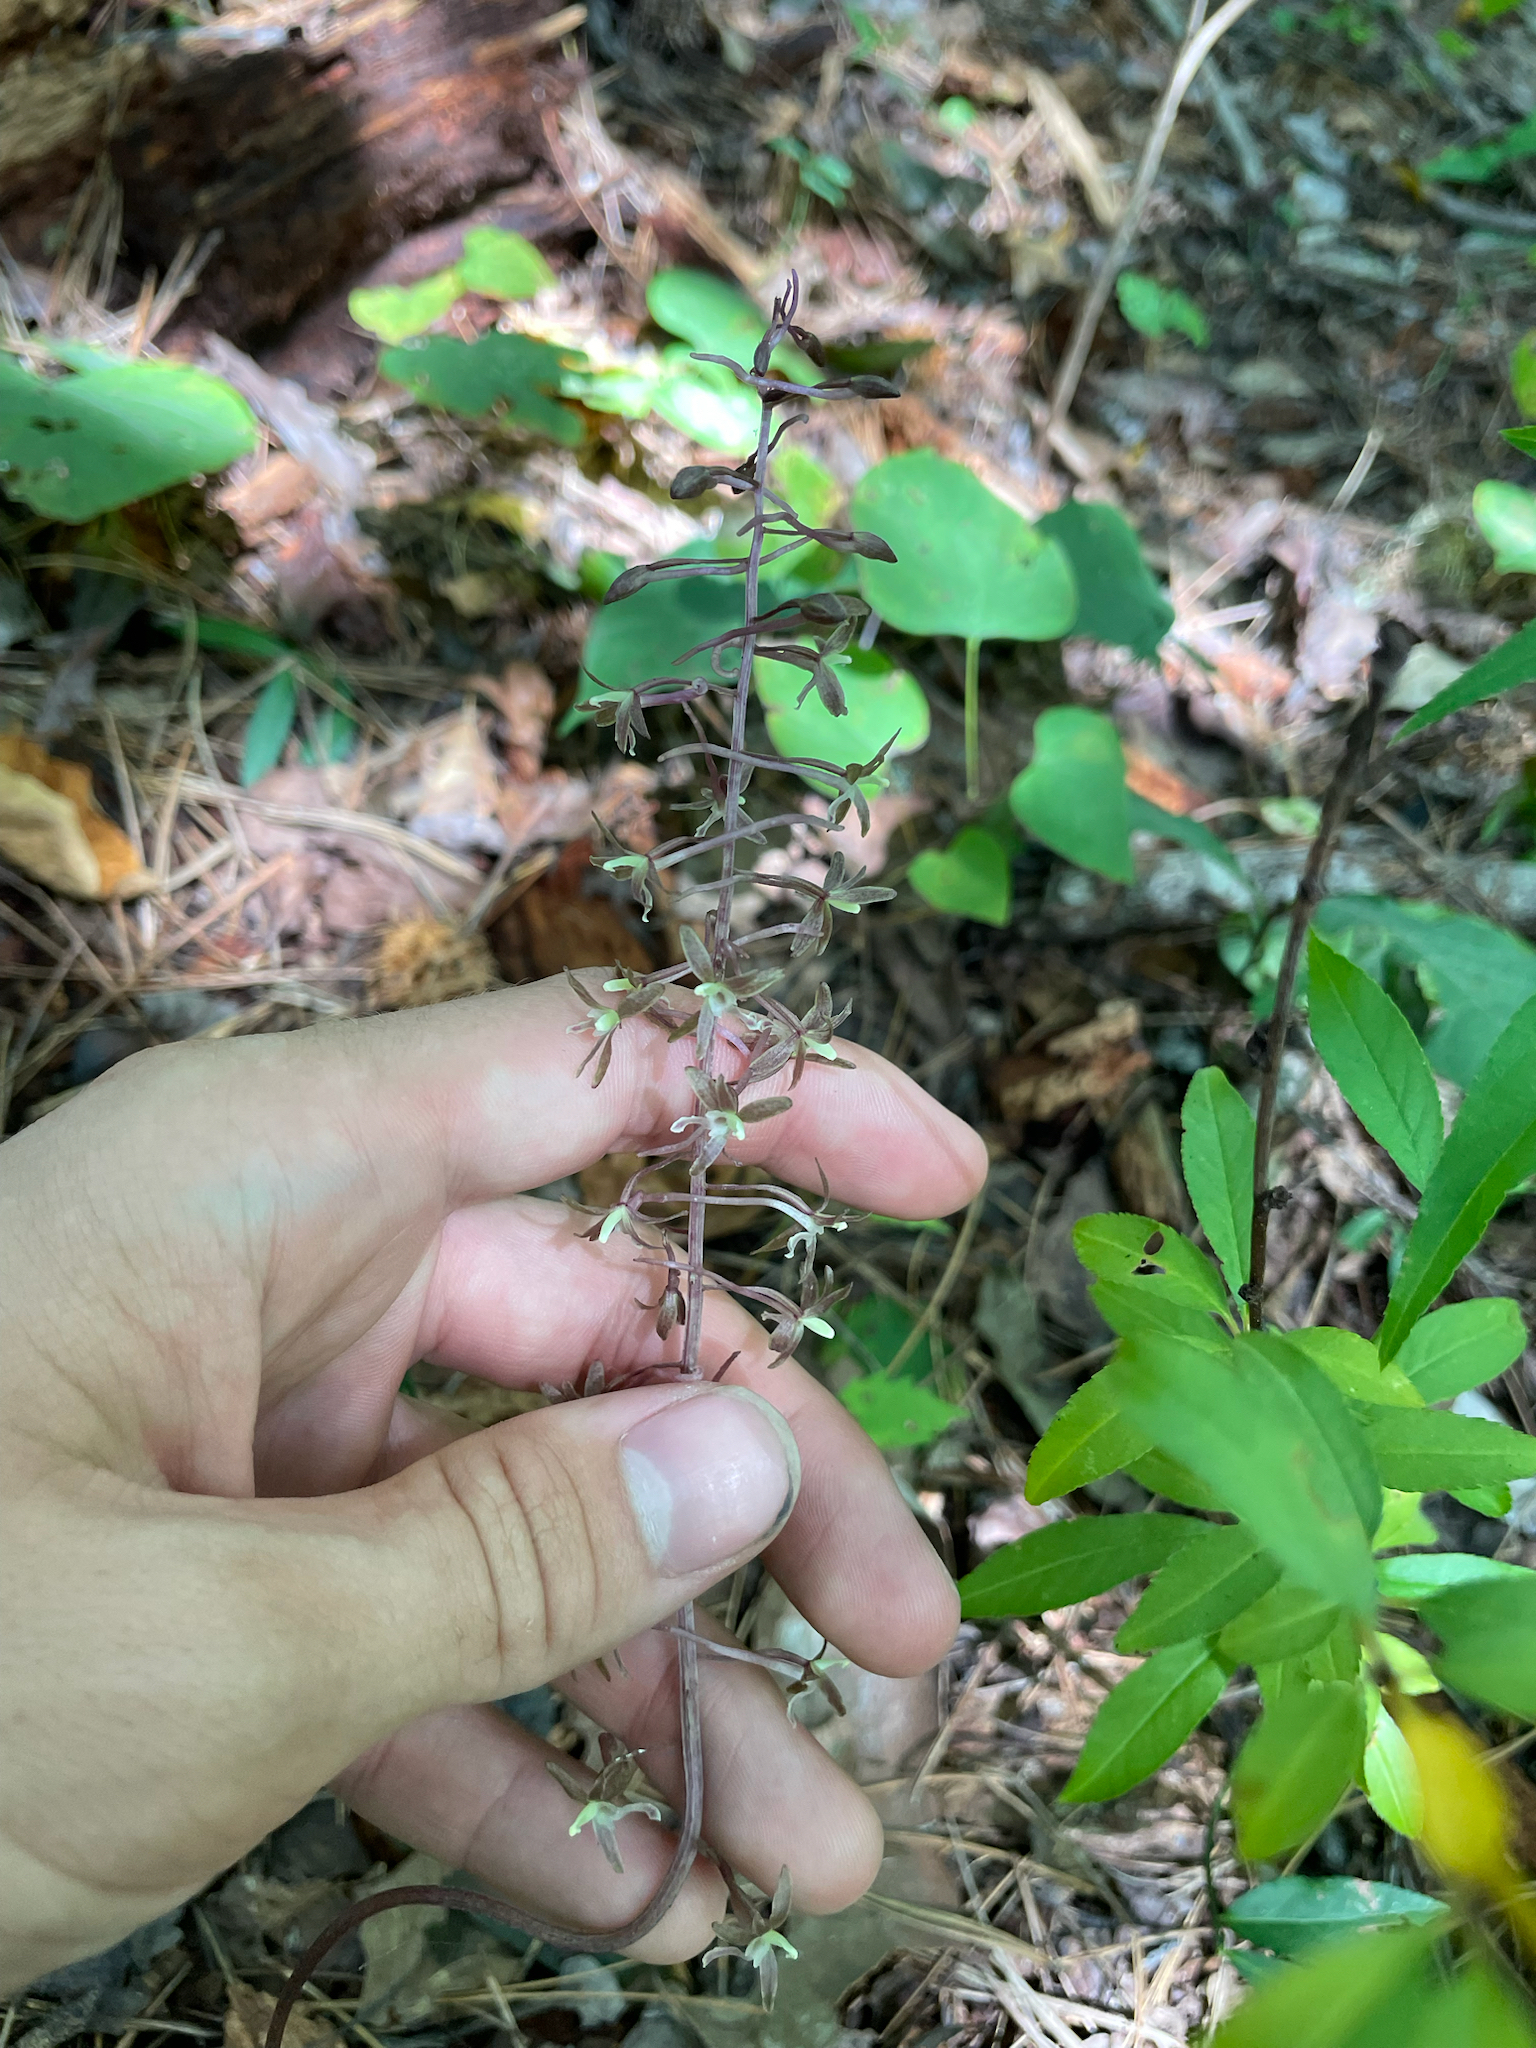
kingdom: Plantae
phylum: Tracheophyta
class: Liliopsida
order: Asparagales
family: Orchidaceae
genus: Tipularia
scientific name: Tipularia discolor
